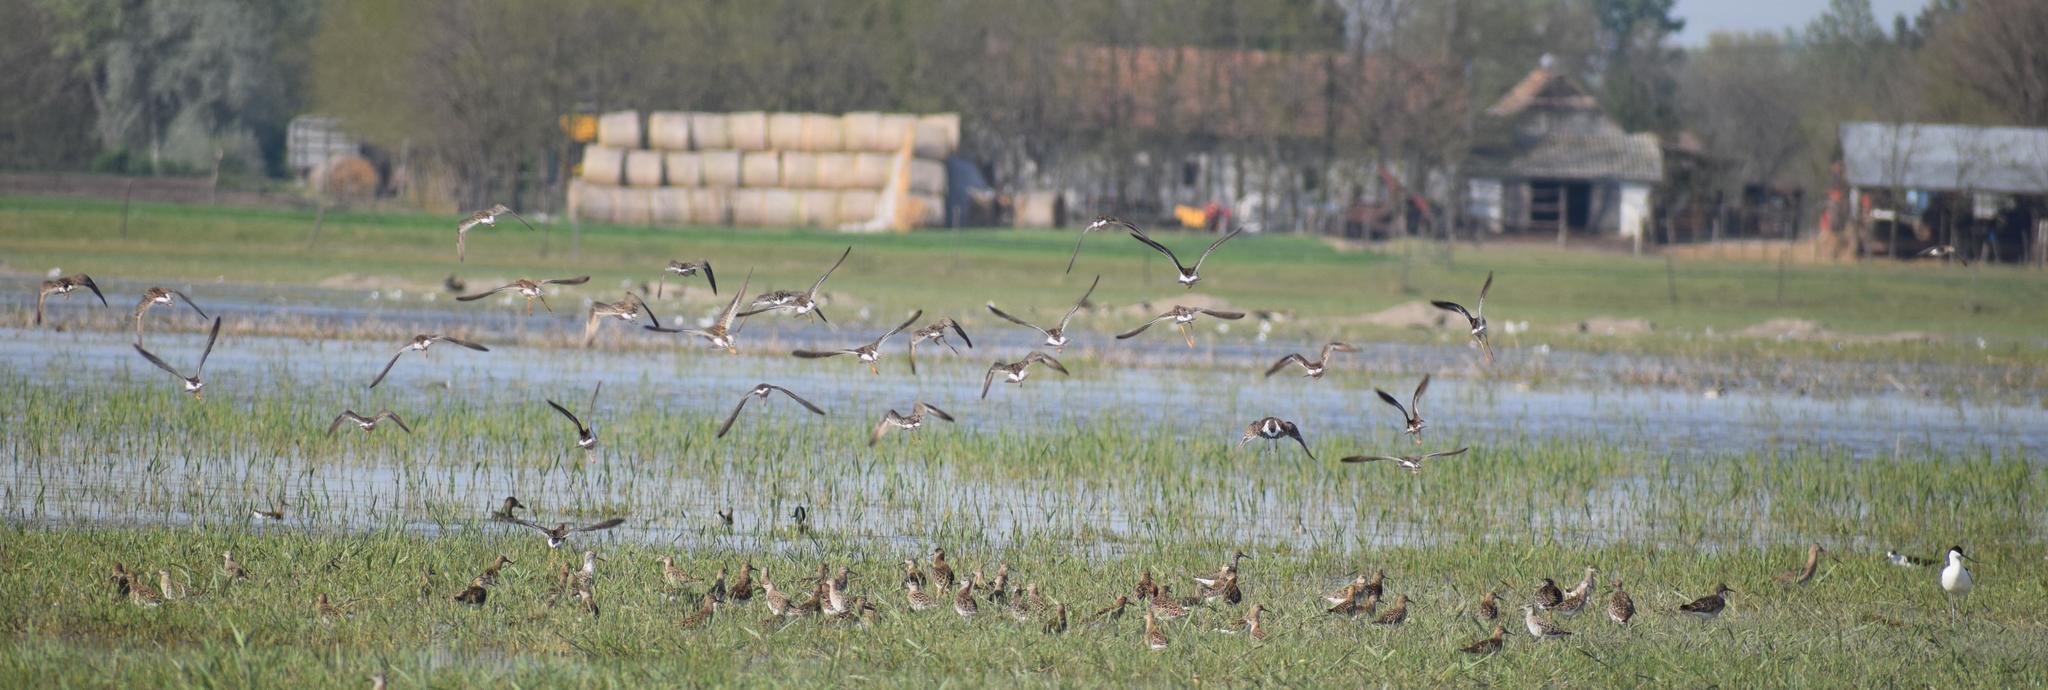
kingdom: Animalia
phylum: Chordata
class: Aves
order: Charadriiformes
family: Scolopacidae
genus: Calidris
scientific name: Calidris pugnax
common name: Ruff
